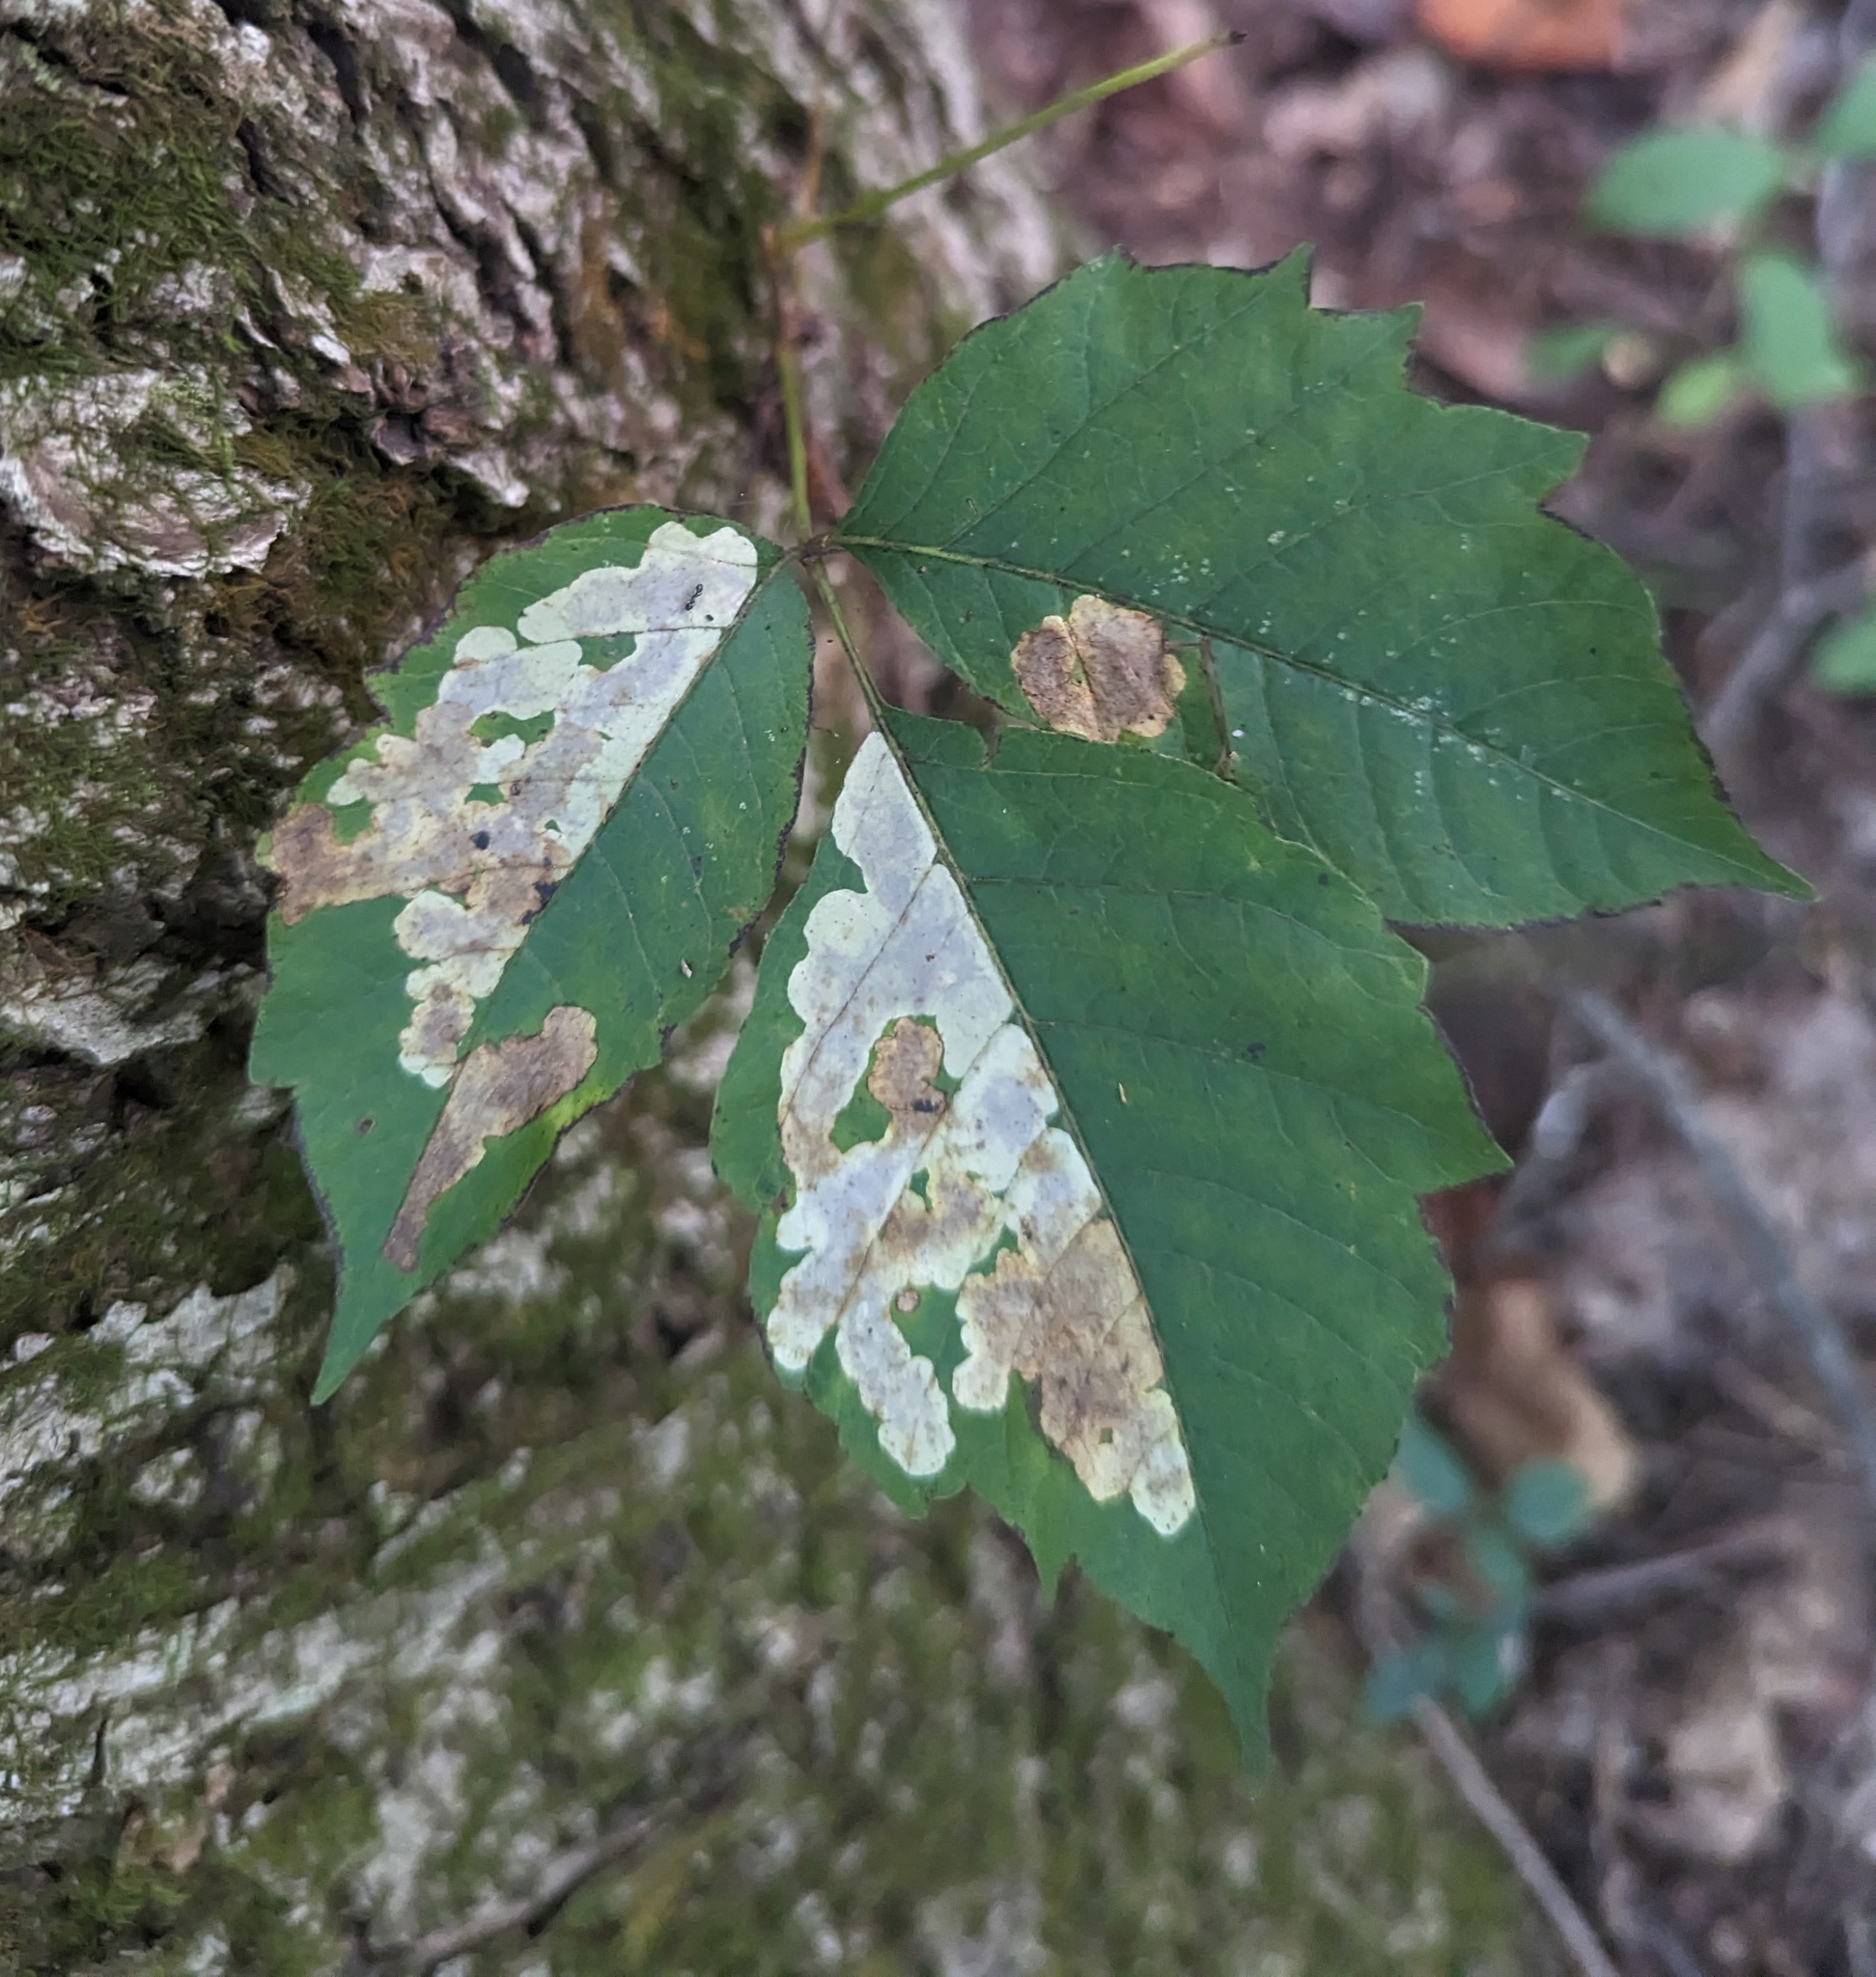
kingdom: Animalia
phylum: Arthropoda
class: Insecta
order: Lepidoptera
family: Gracillariidae
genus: Cameraria
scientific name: Cameraria guttifinitella
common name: Poison ivy leaf-miner moth
